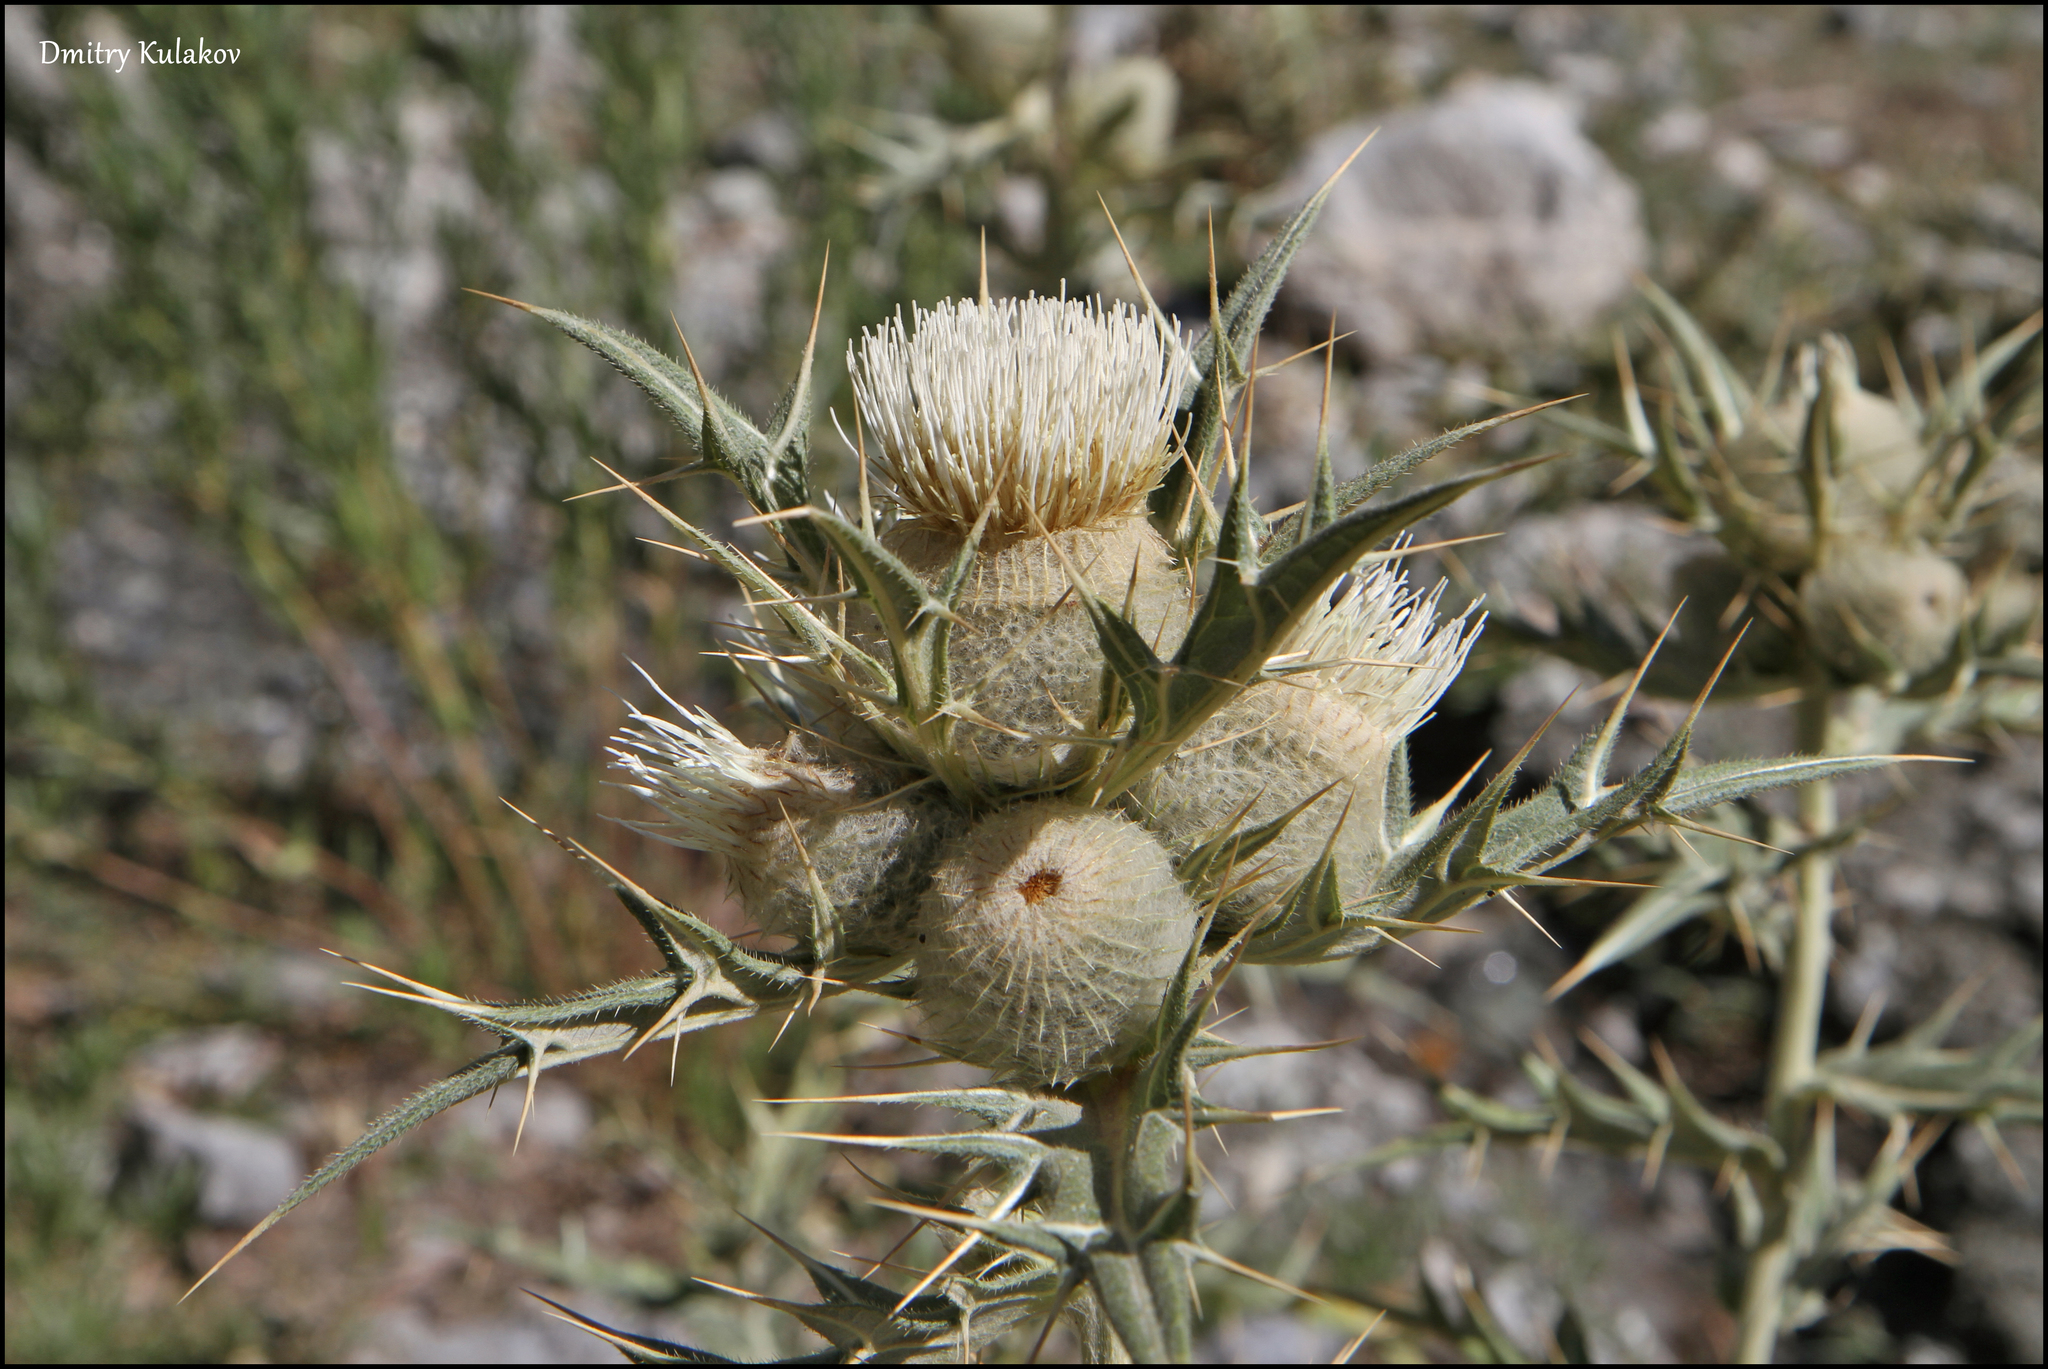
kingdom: Plantae
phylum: Tracheophyta
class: Magnoliopsida
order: Asterales
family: Asteraceae
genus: Lophiolepis
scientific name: Lophiolepis turkestanica
